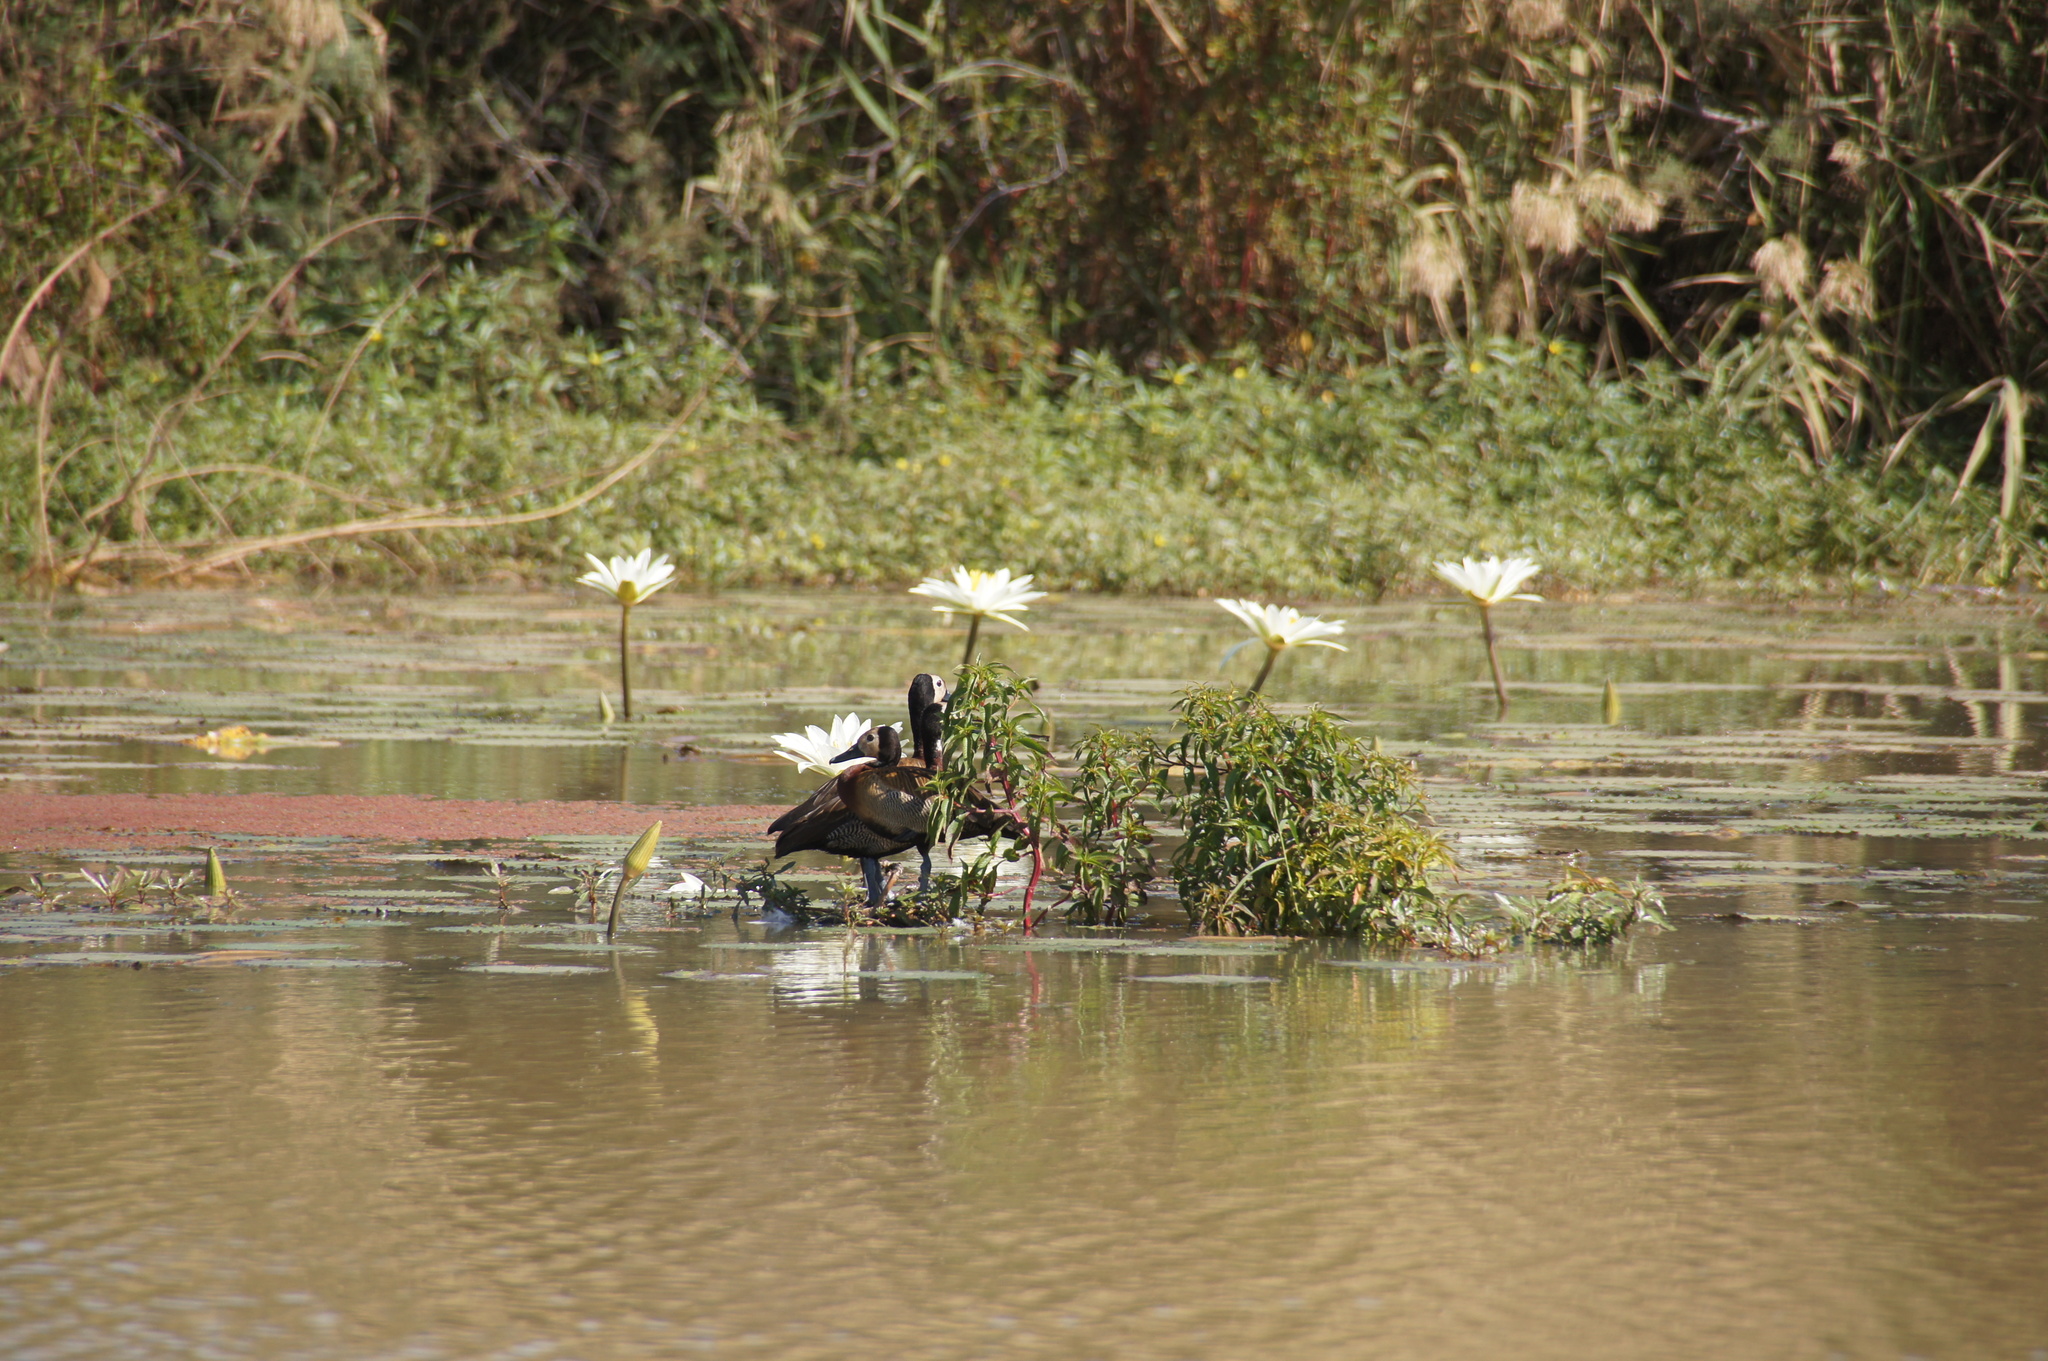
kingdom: Animalia
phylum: Chordata
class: Aves
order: Anseriformes
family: Anatidae
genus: Dendrocygna
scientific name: Dendrocygna viduata
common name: White-faced whistling duck
